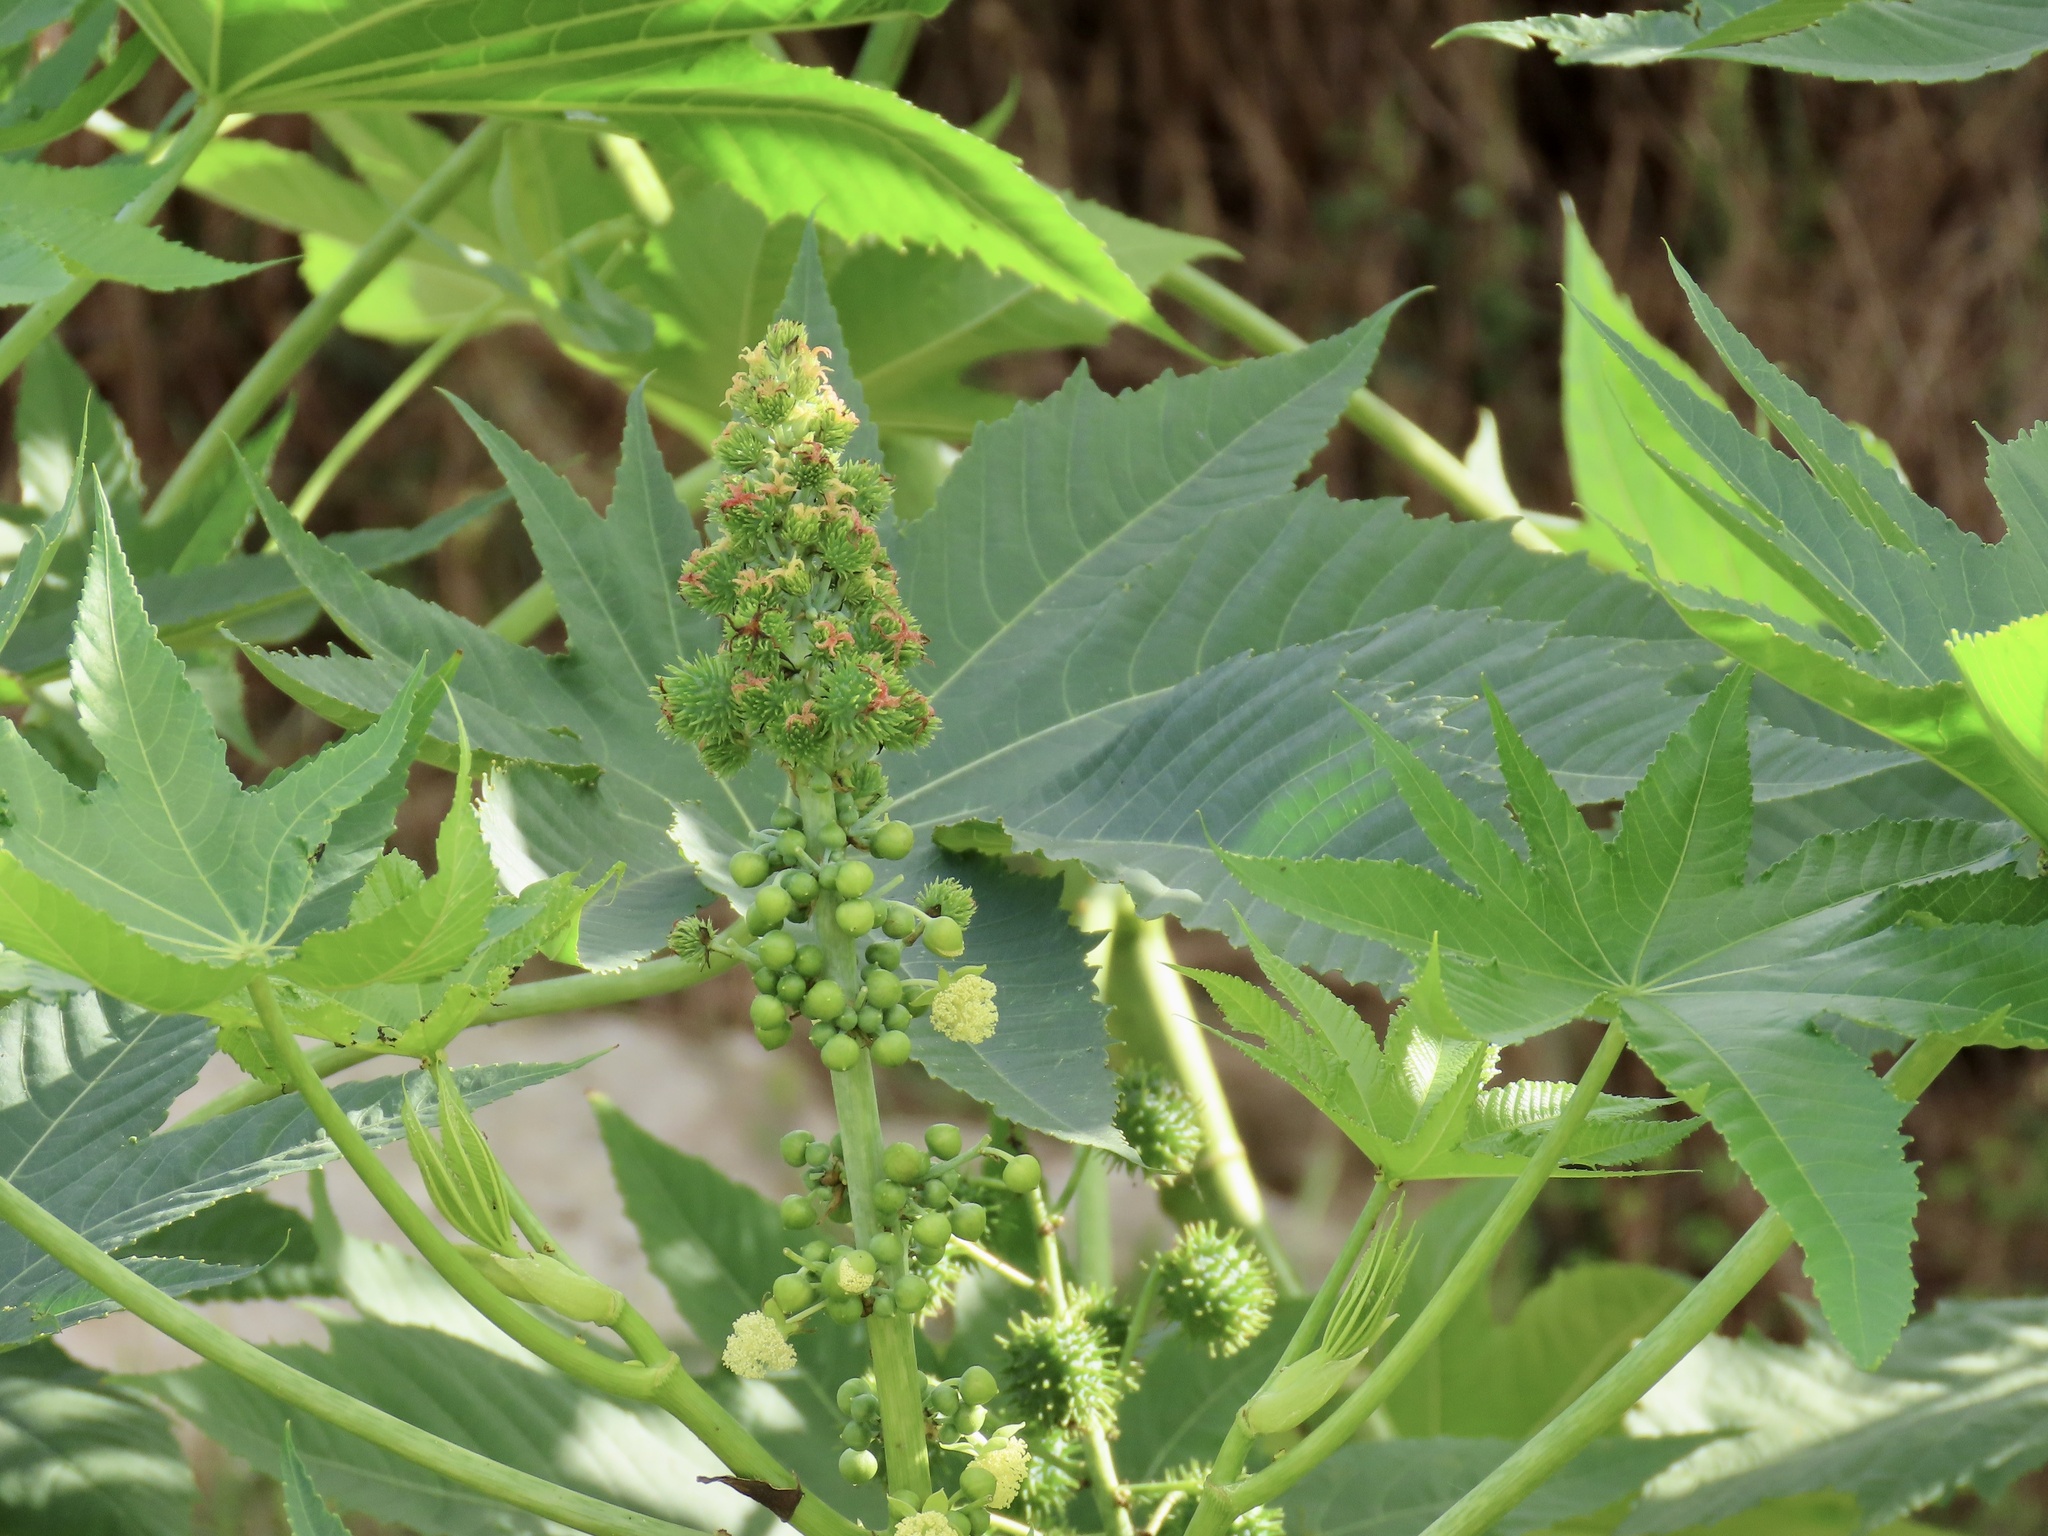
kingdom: Plantae
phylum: Tracheophyta
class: Magnoliopsida
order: Malpighiales
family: Euphorbiaceae
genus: Ricinus
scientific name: Ricinus communis
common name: Castor-oil-plant
